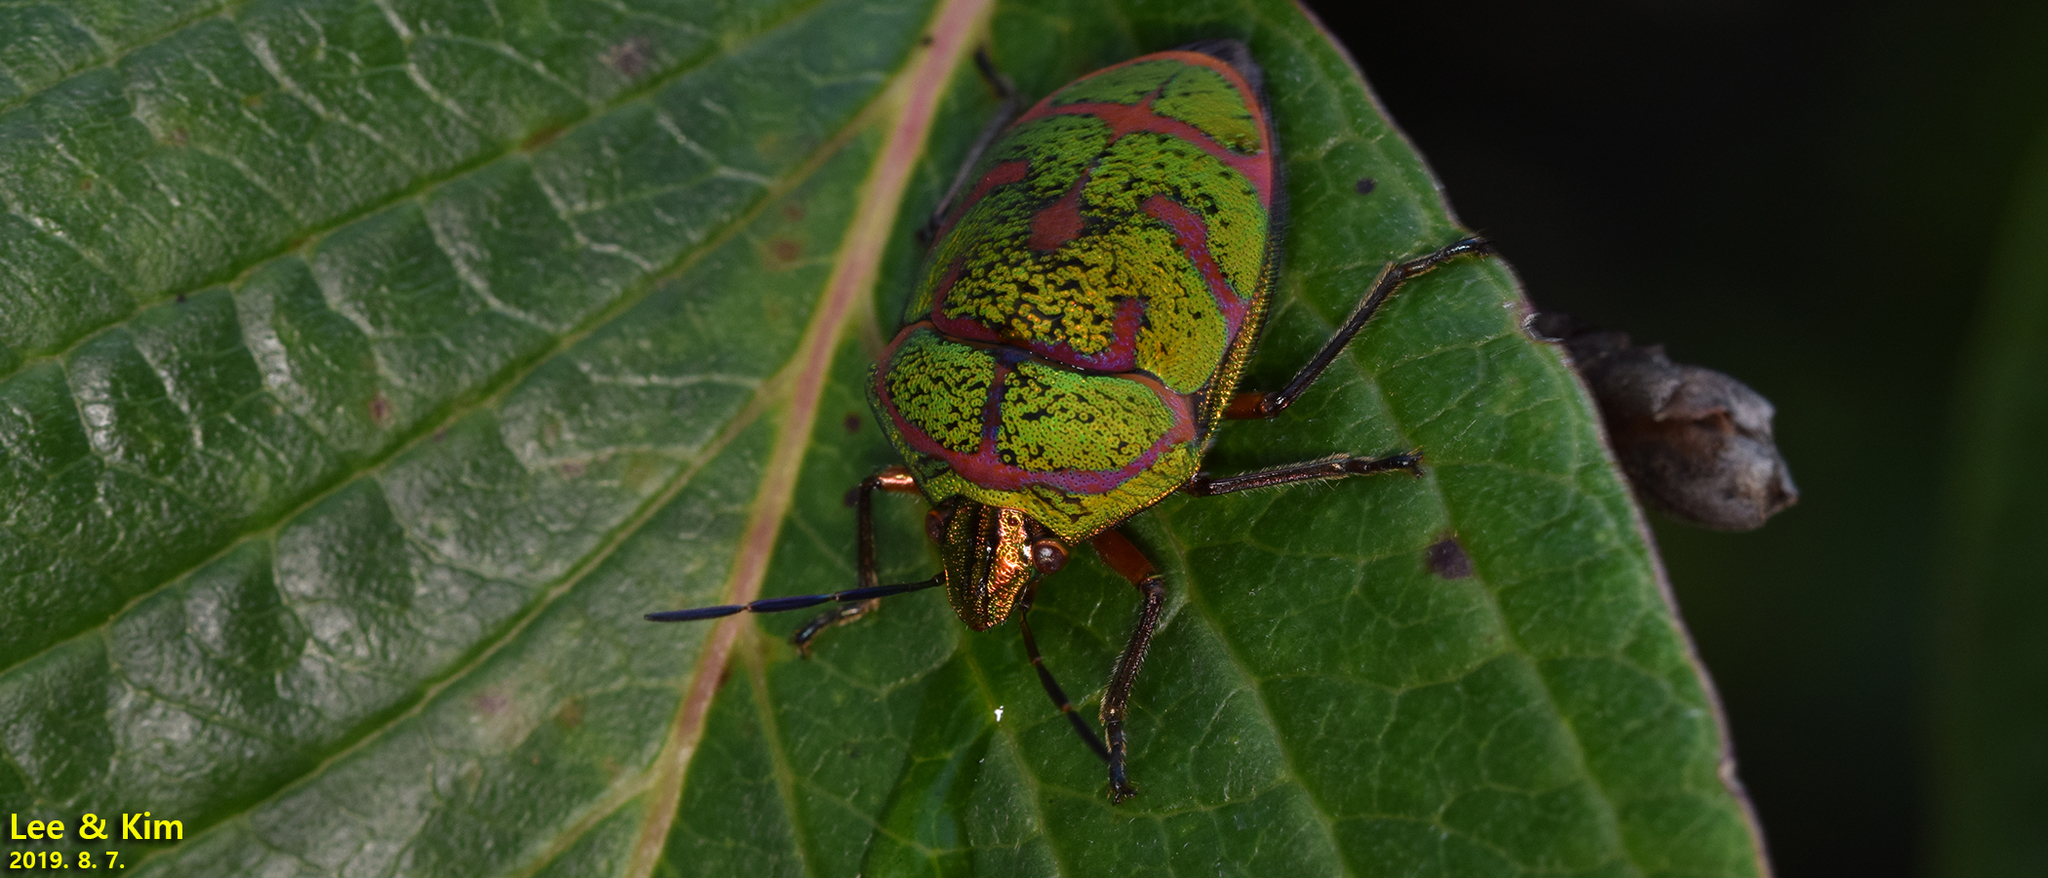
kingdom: Animalia
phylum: Arthropoda
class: Insecta
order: Hemiptera
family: Scutelleridae
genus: Poecilocoris
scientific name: Poecilocoris lewisi
